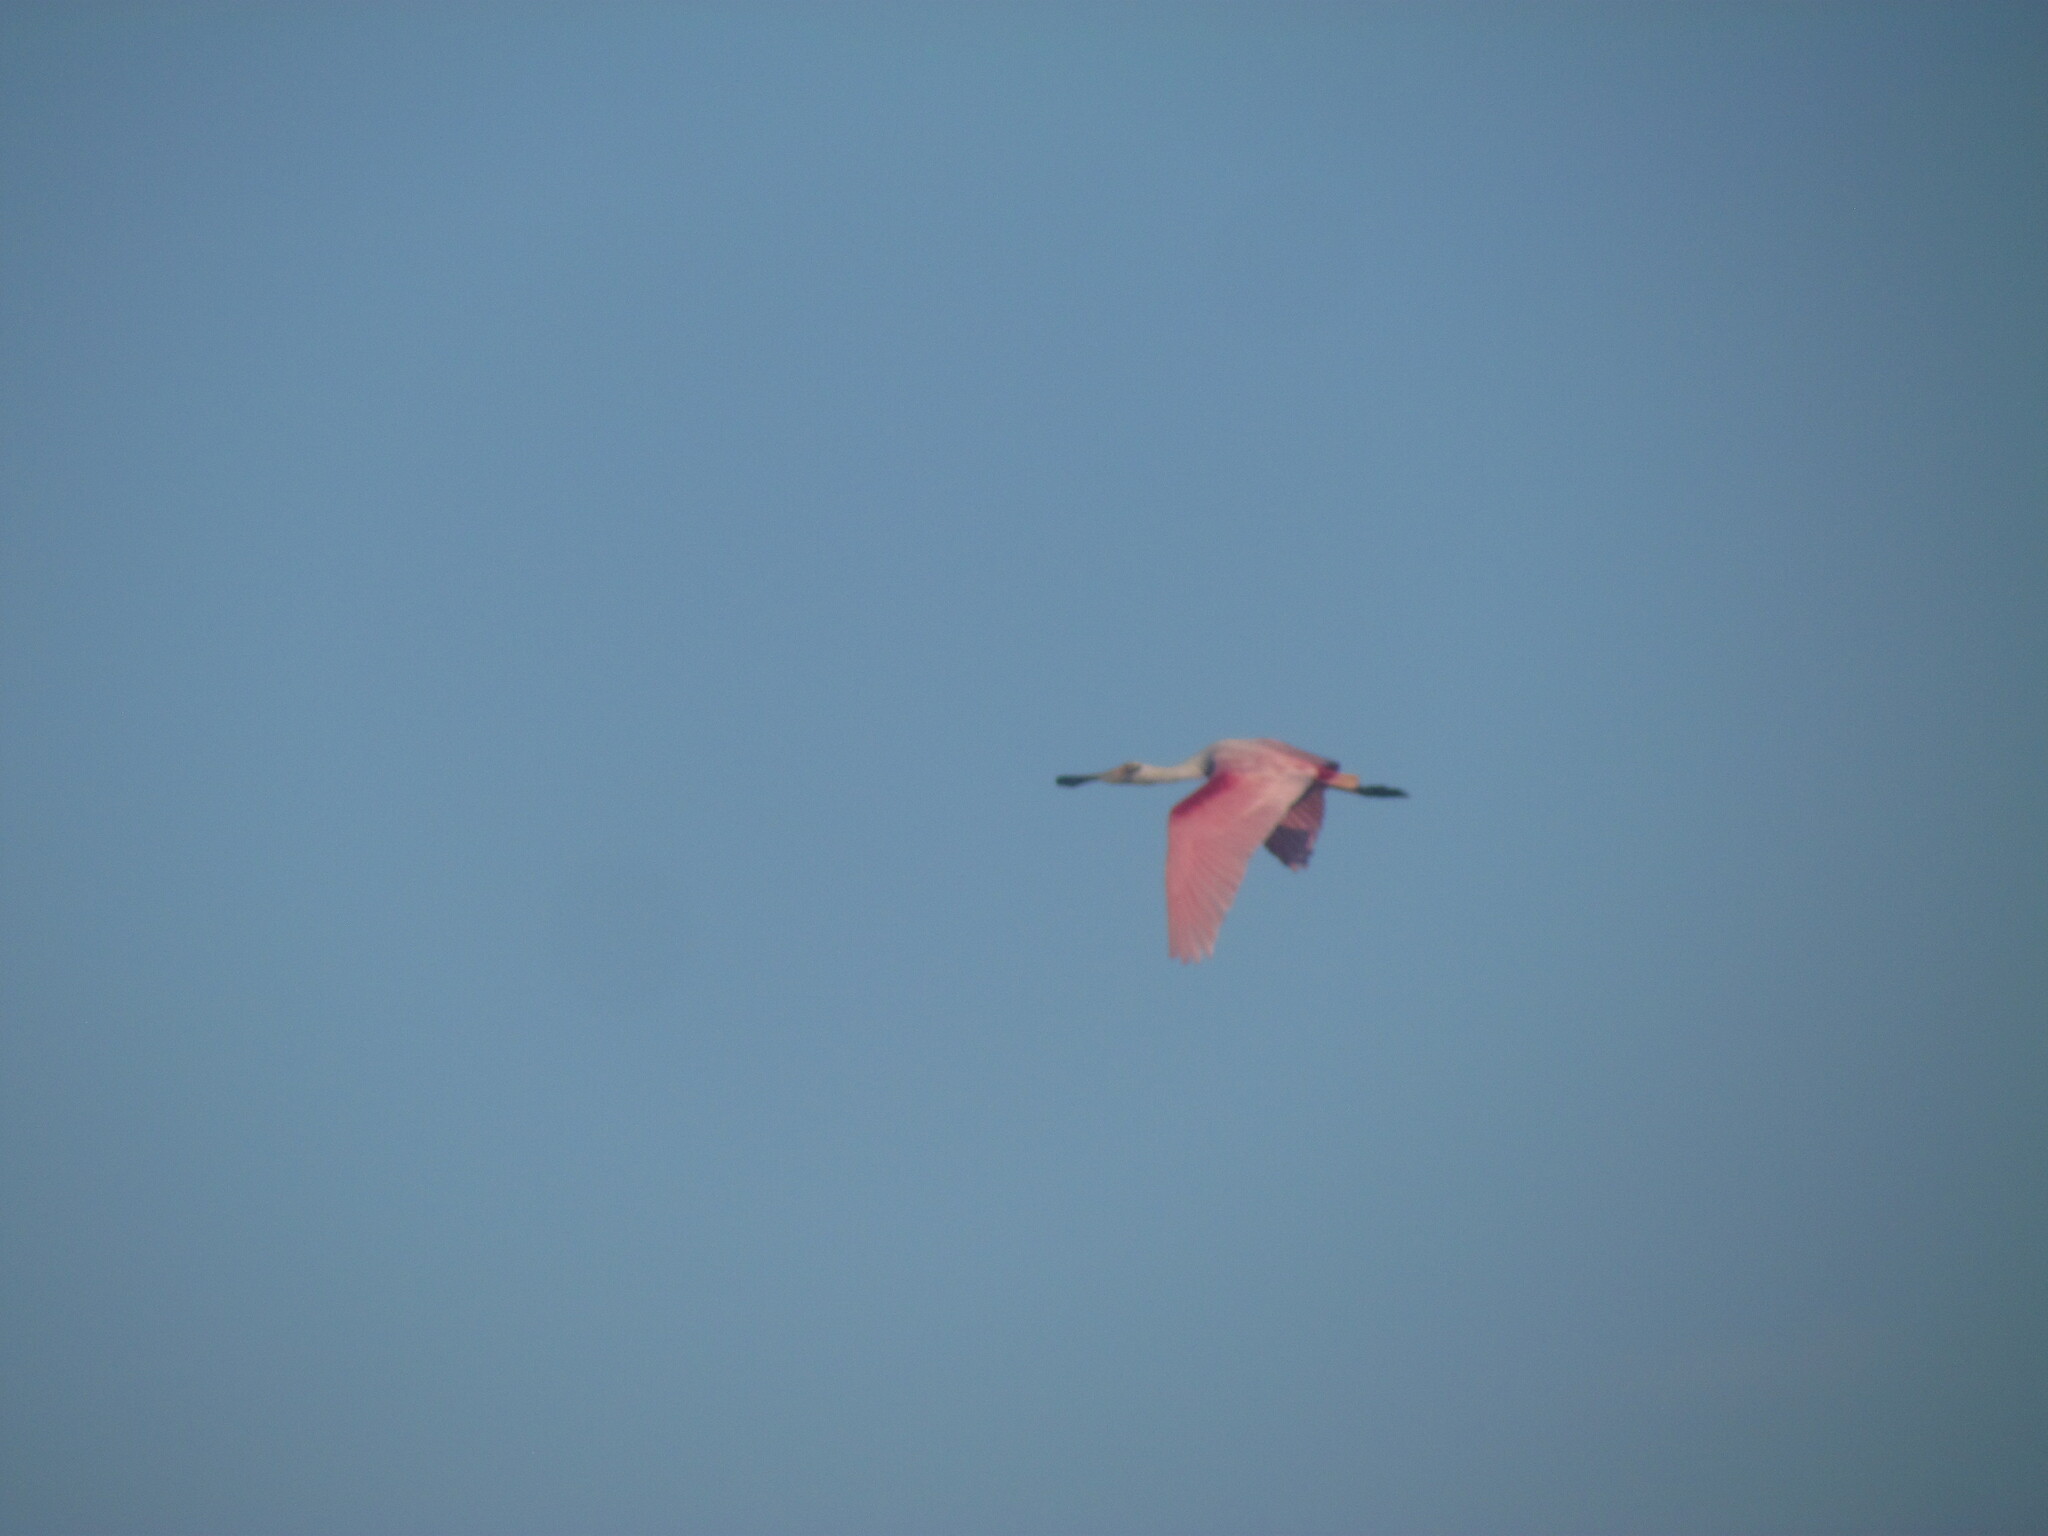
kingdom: Animalia
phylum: Chordata
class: Aves
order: Pelecaniformes
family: Threskiornithidae
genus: Platalea
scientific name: Platalea ajaja
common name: Roseate spoonbill
